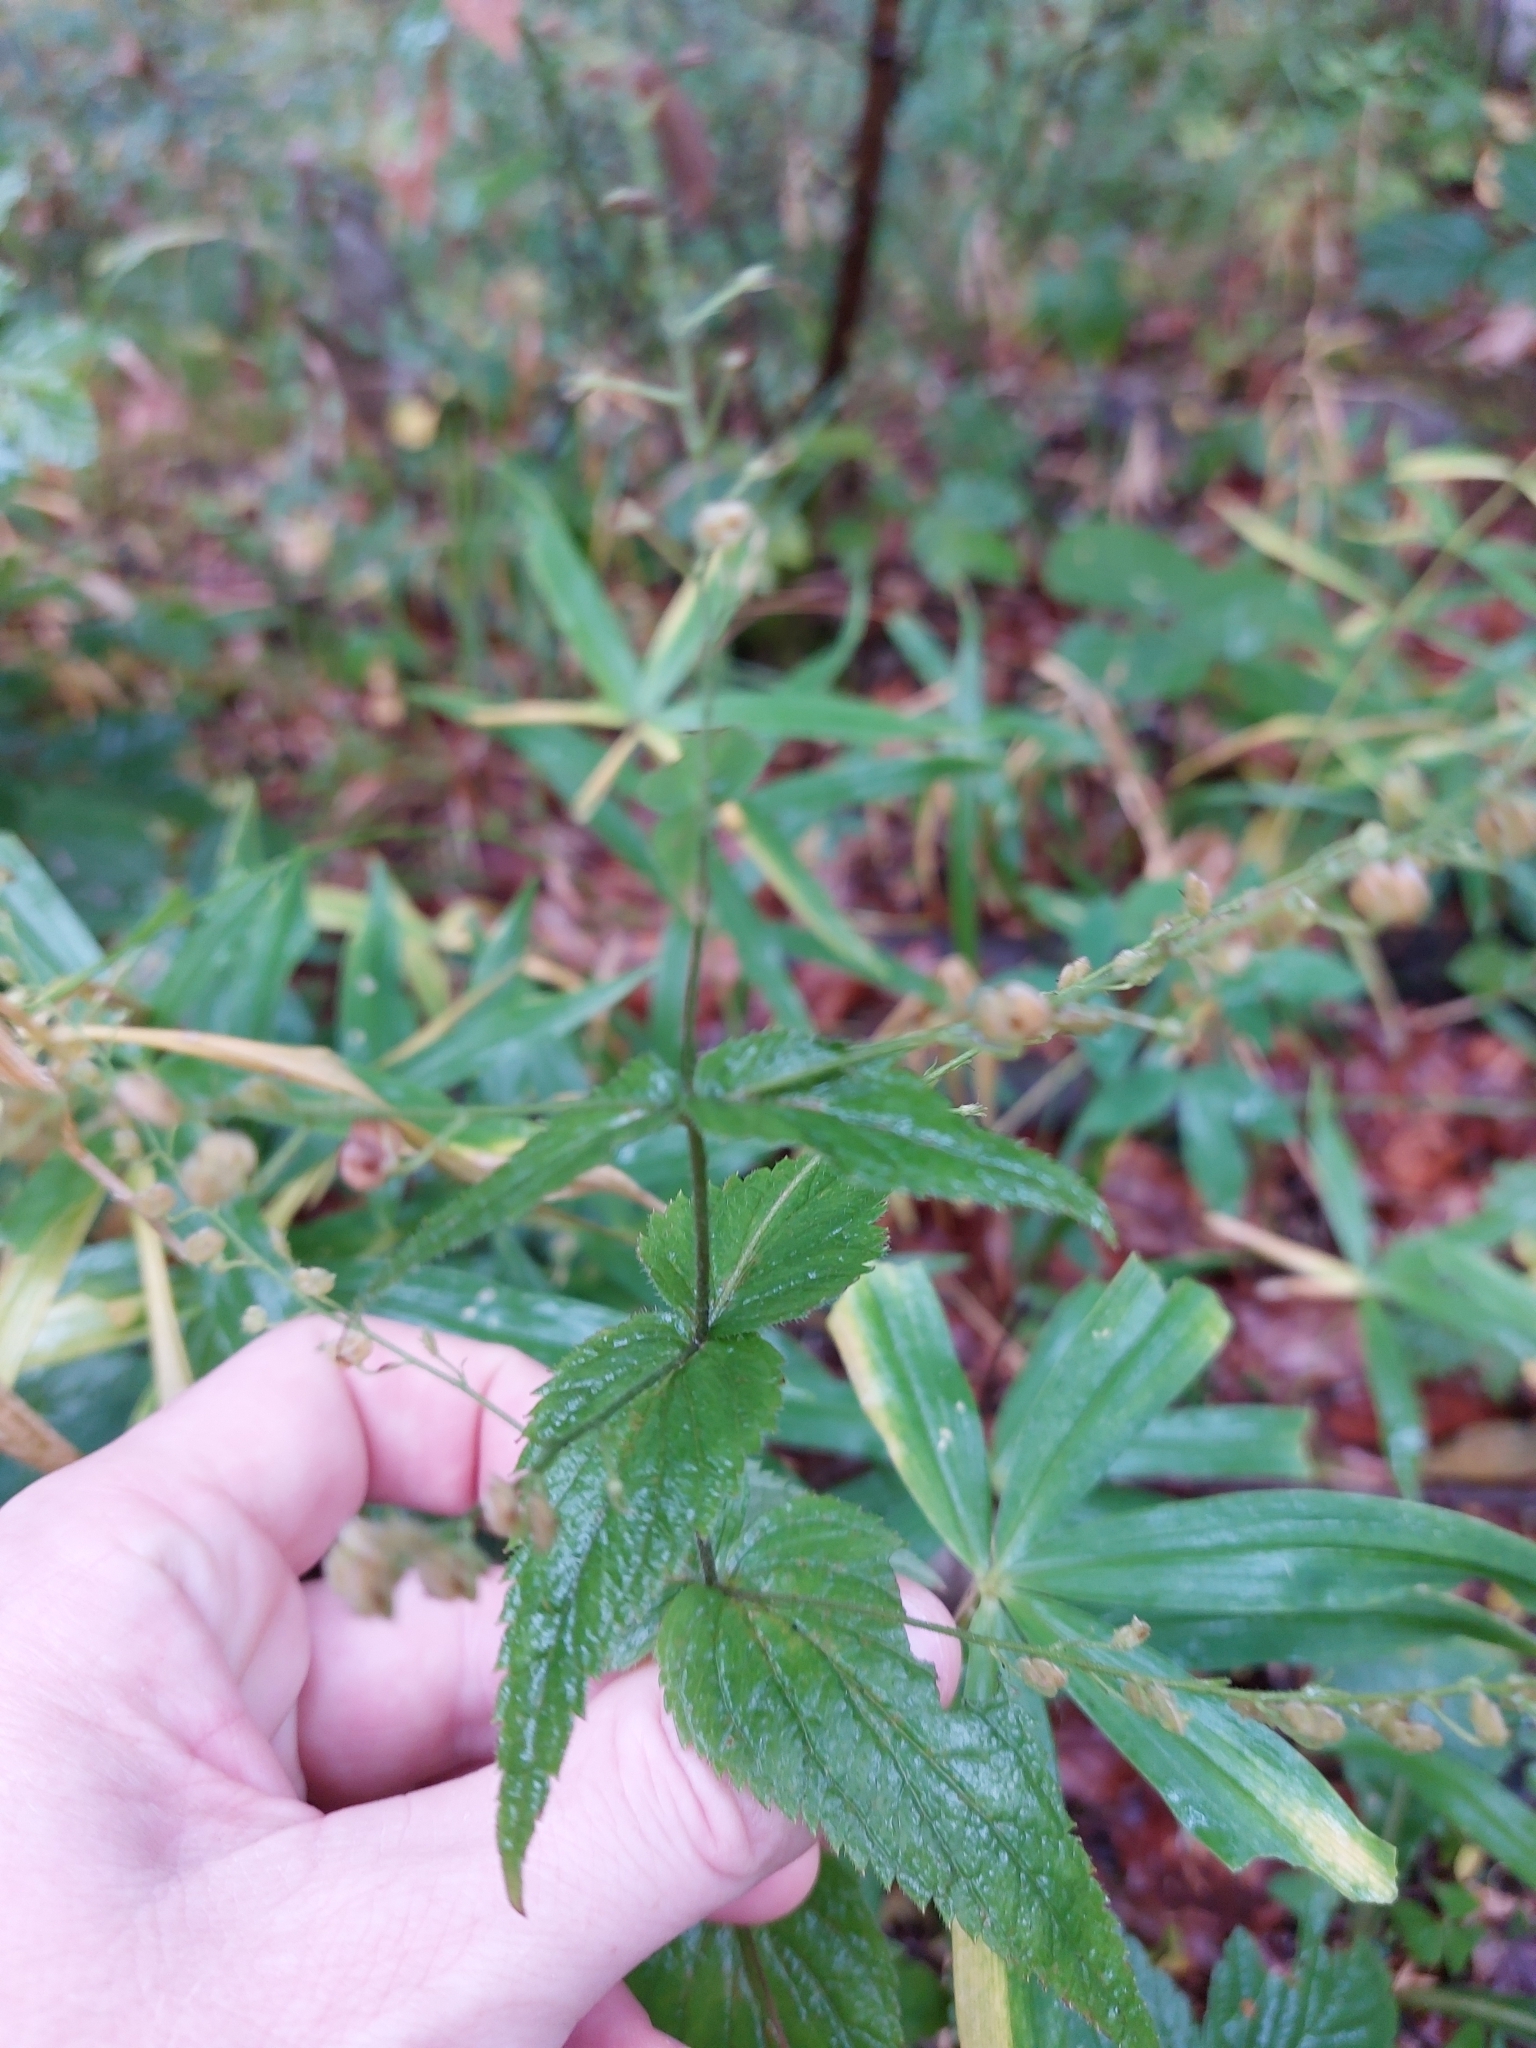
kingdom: Plantae
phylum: Tracheophyta
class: Magnoliopsida
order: Lamiales
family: Plantaginaceae
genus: Veronica
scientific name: Veronica urticifolia
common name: Nettle-leaf speedwell
